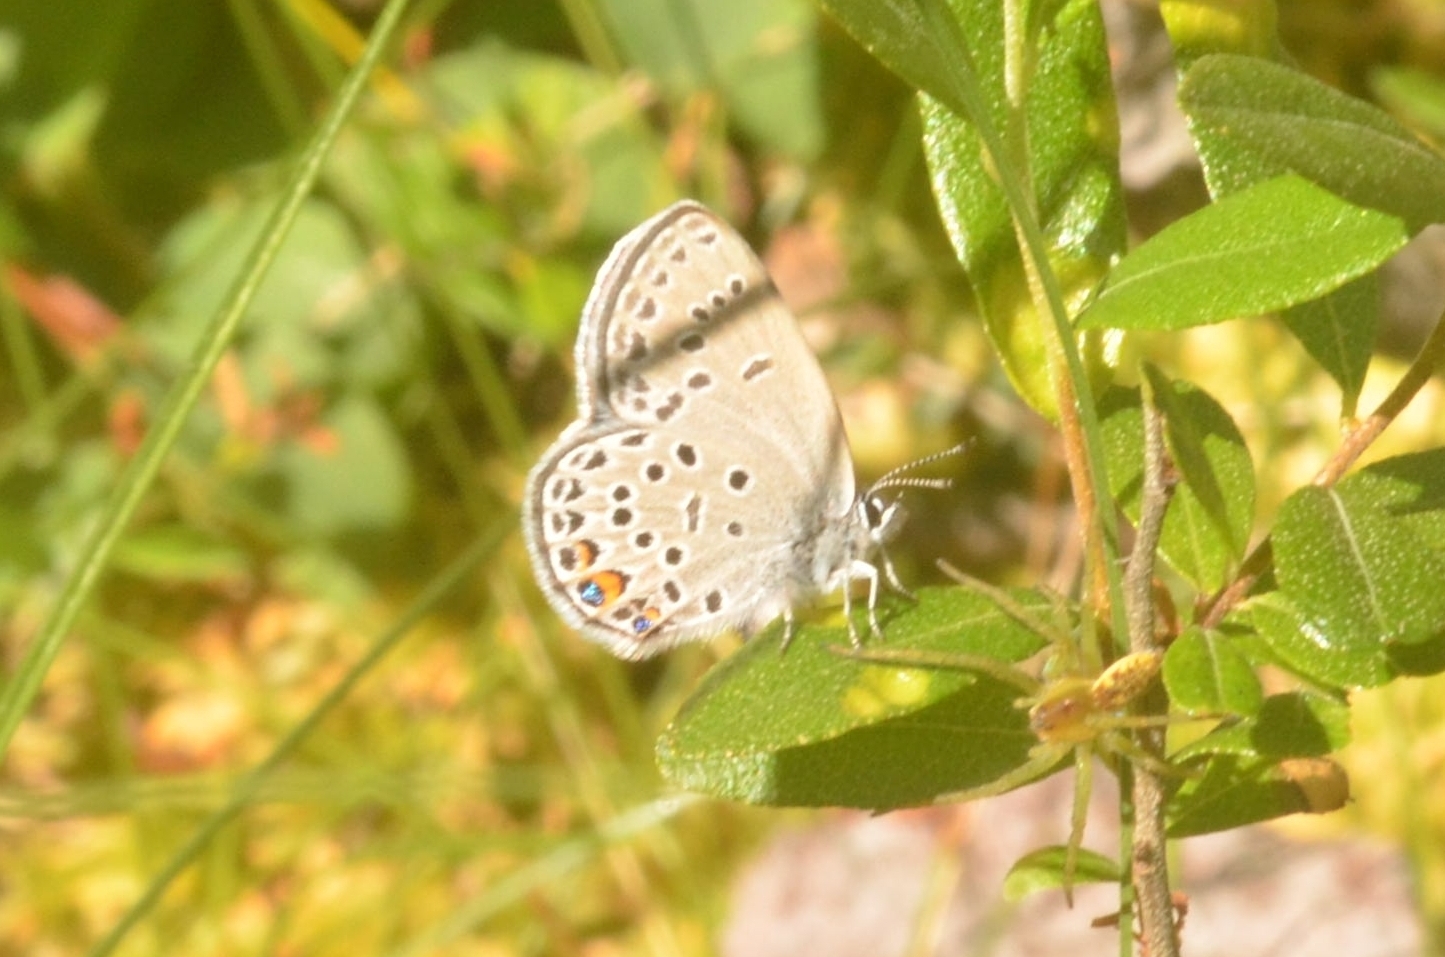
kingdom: Animalia
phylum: Arthropoda
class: Insecta
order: Lepidoptera
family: Lycaenidae
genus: Vacciniina
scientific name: Vacciniina optilete
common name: Cranberry blue
